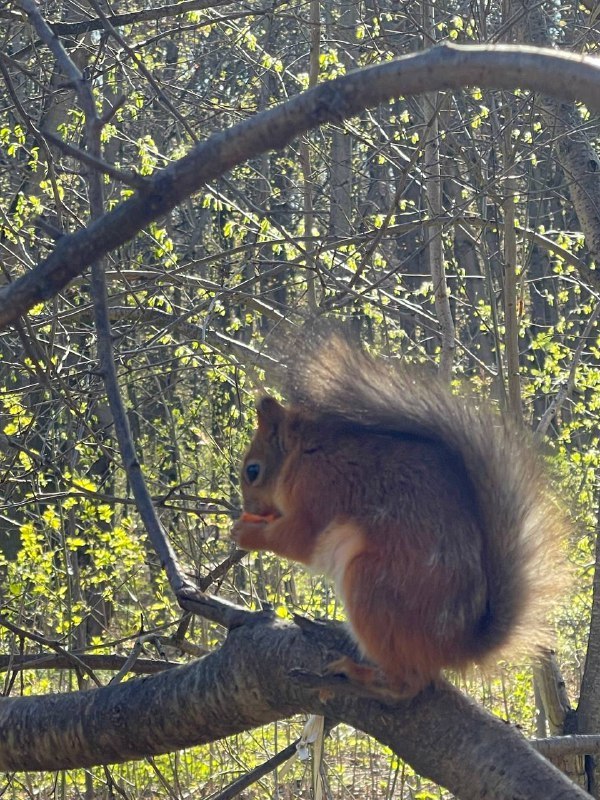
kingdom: Animalia
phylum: Chordata
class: Mammalia
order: Rodentia
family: Sciuridae
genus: Sciurus
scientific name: Sciurus vulgaris
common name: Eurasian red squirrel
